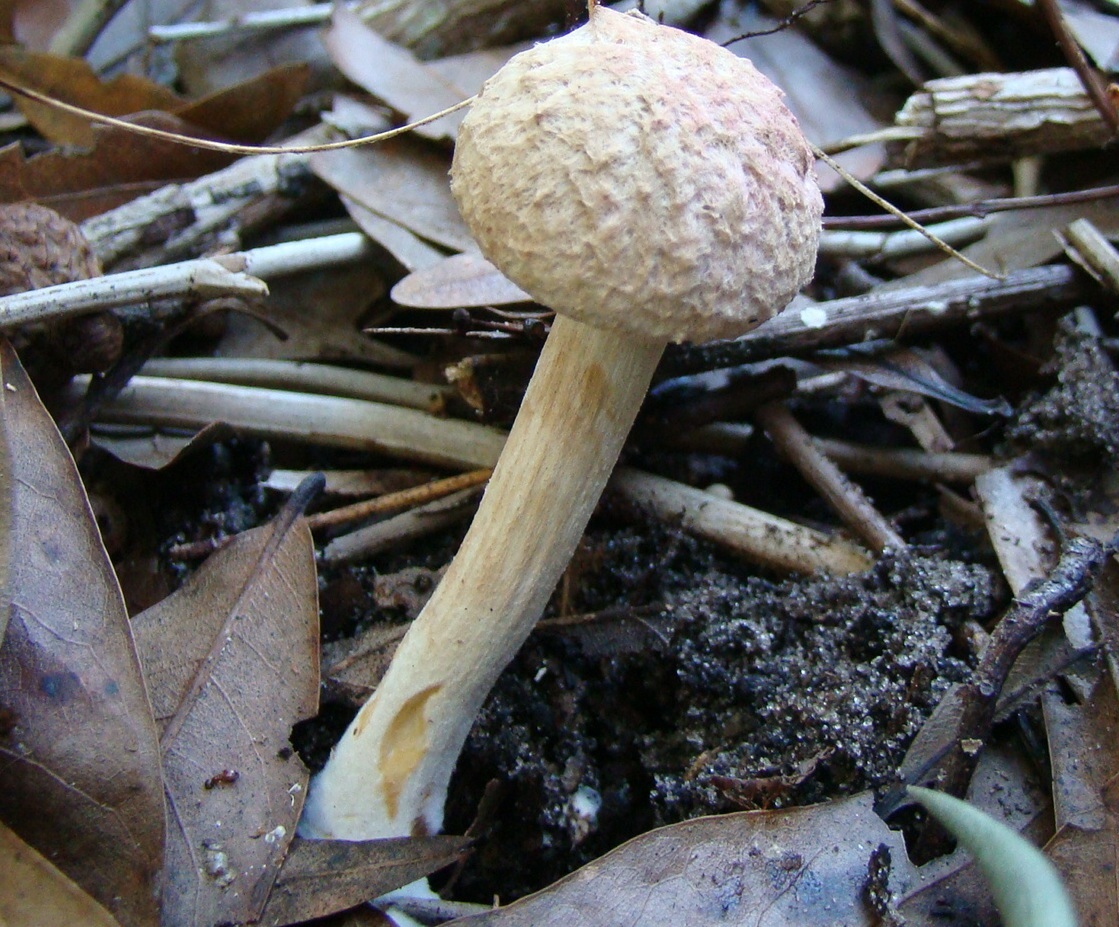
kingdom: Fungi
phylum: Basidiomycota
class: Agaricomycetes
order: Boletales
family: Boletaceae
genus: Boletellus
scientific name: Boletellus ananas
